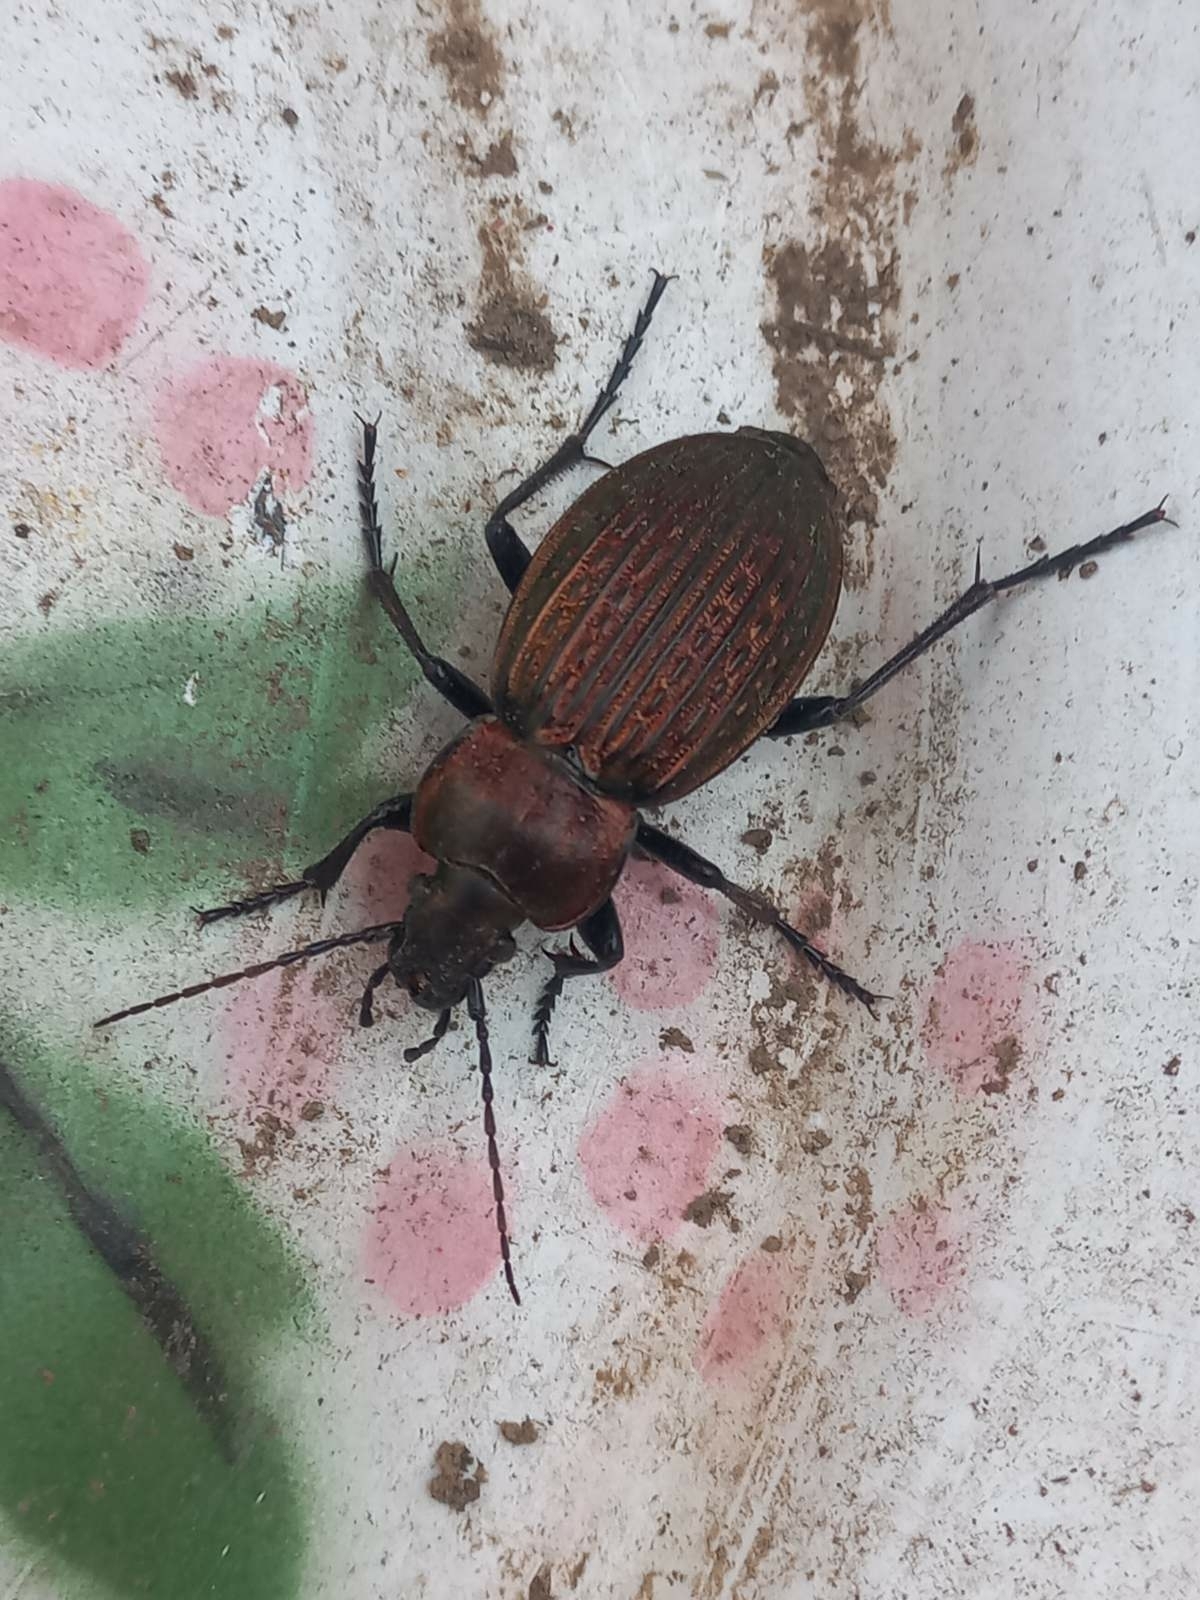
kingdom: Animalia
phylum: Arthropoda
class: Insecta
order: Coleoptera
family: Carabidae
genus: Carabus
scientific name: Carabus ulrichii
